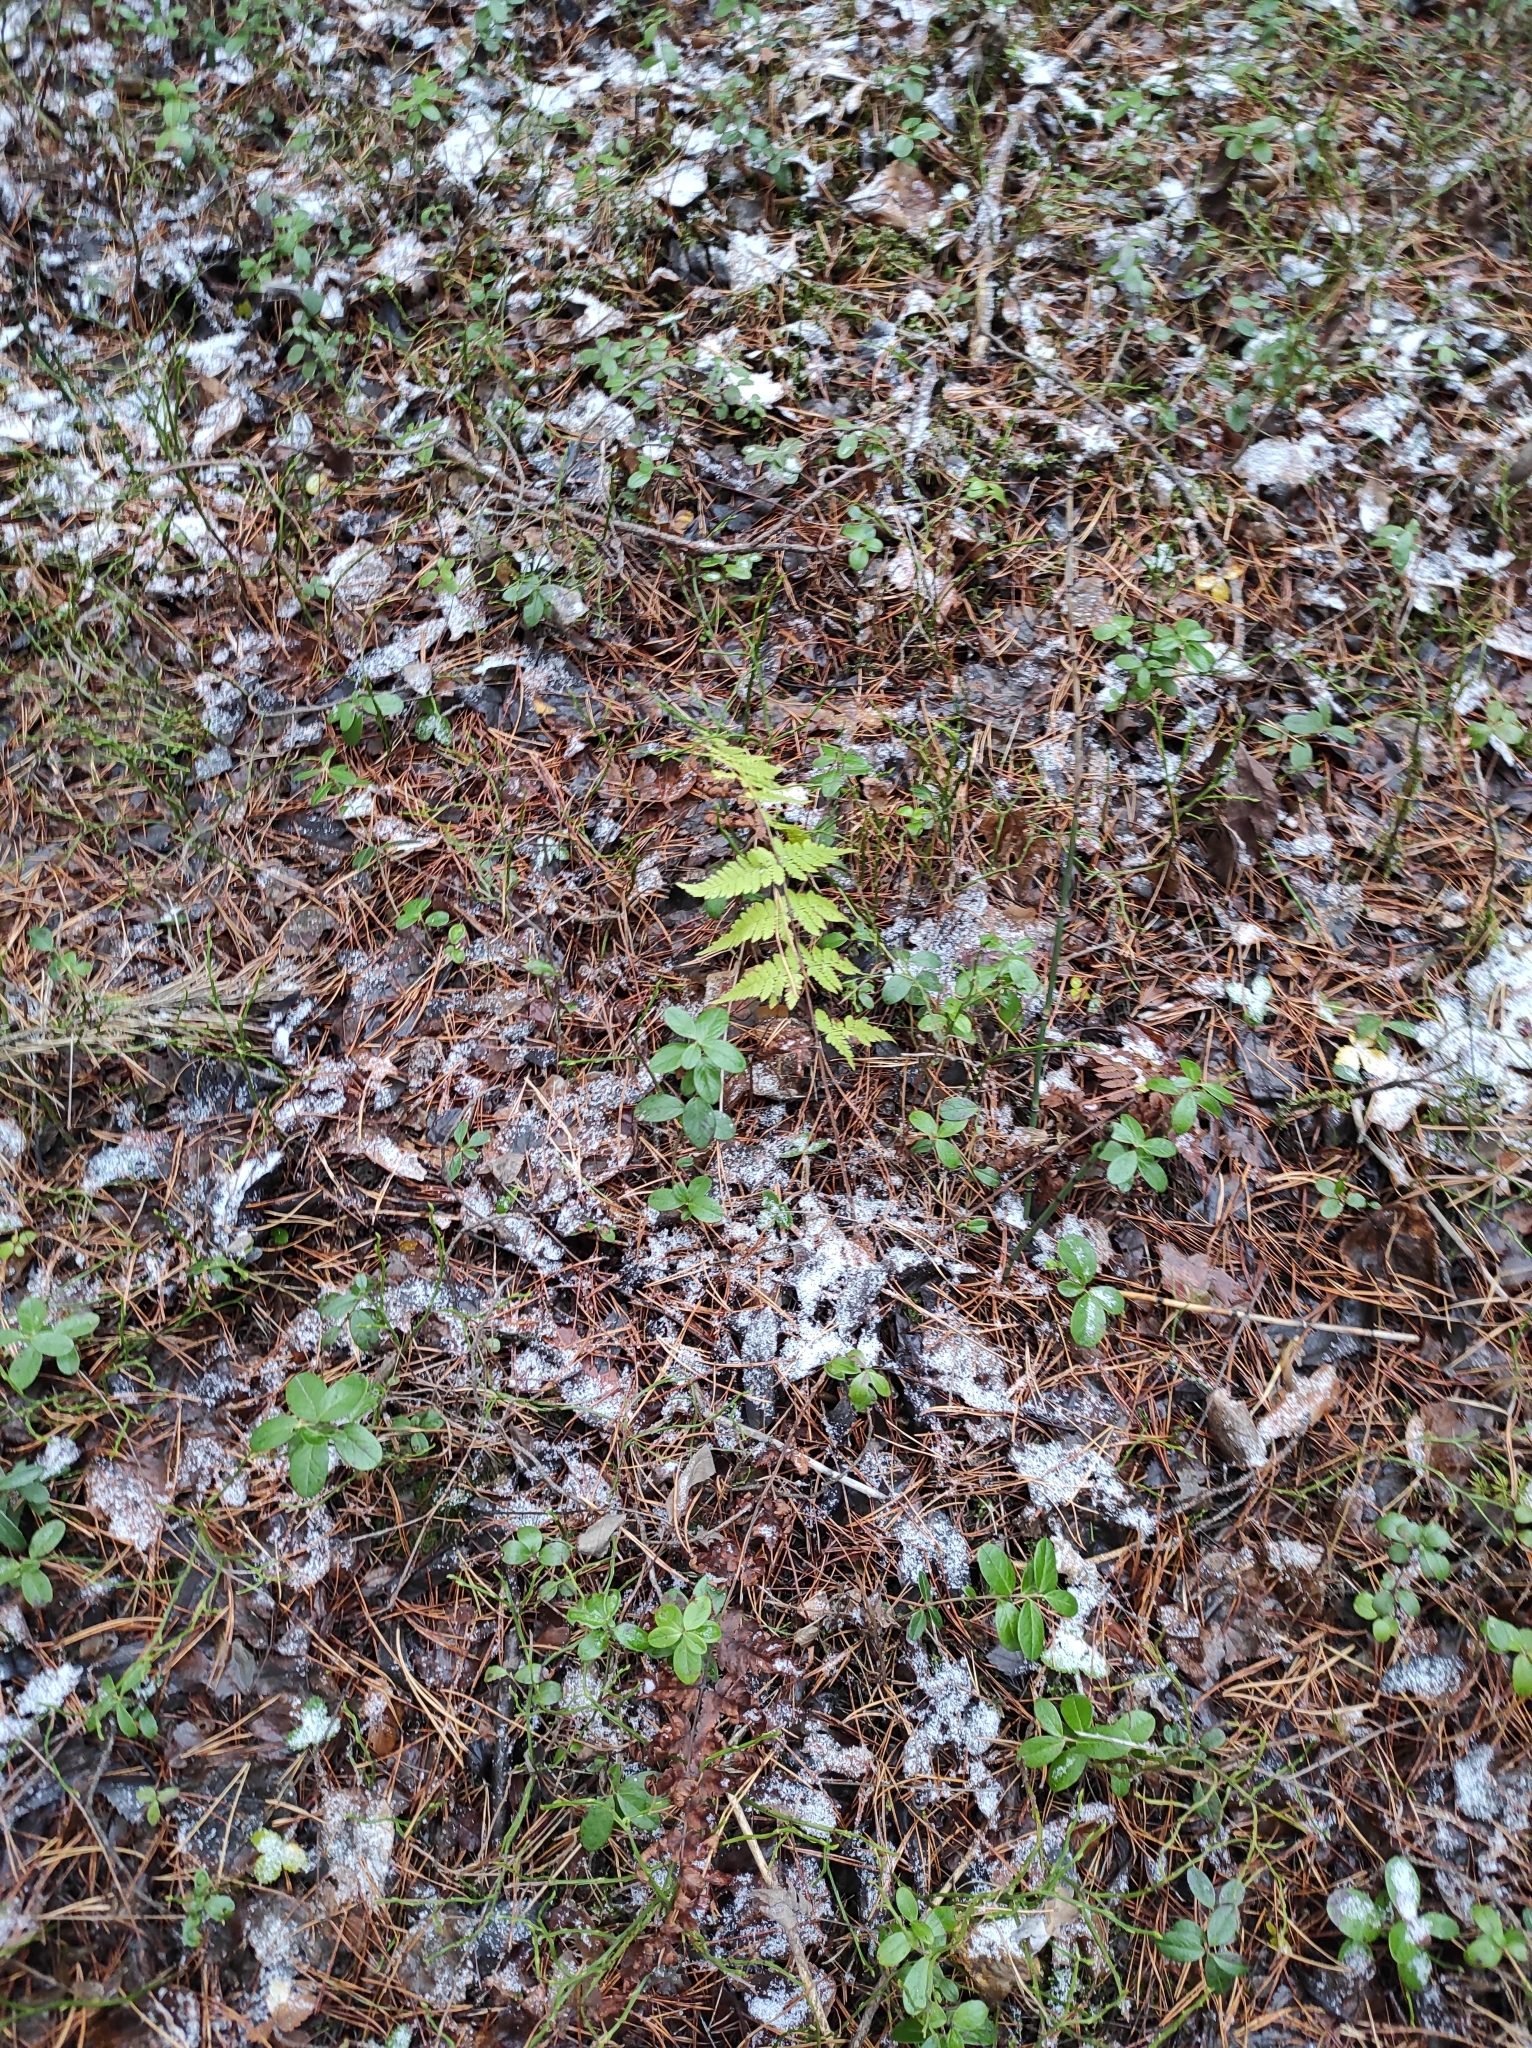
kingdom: Plantae
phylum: Tracheophyta
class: Polypodiopsida
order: Polypodiales
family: Dryopteridaceae
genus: Dryopteris
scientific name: Dryopteris carthusiana
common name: Narrow buckler-fern
